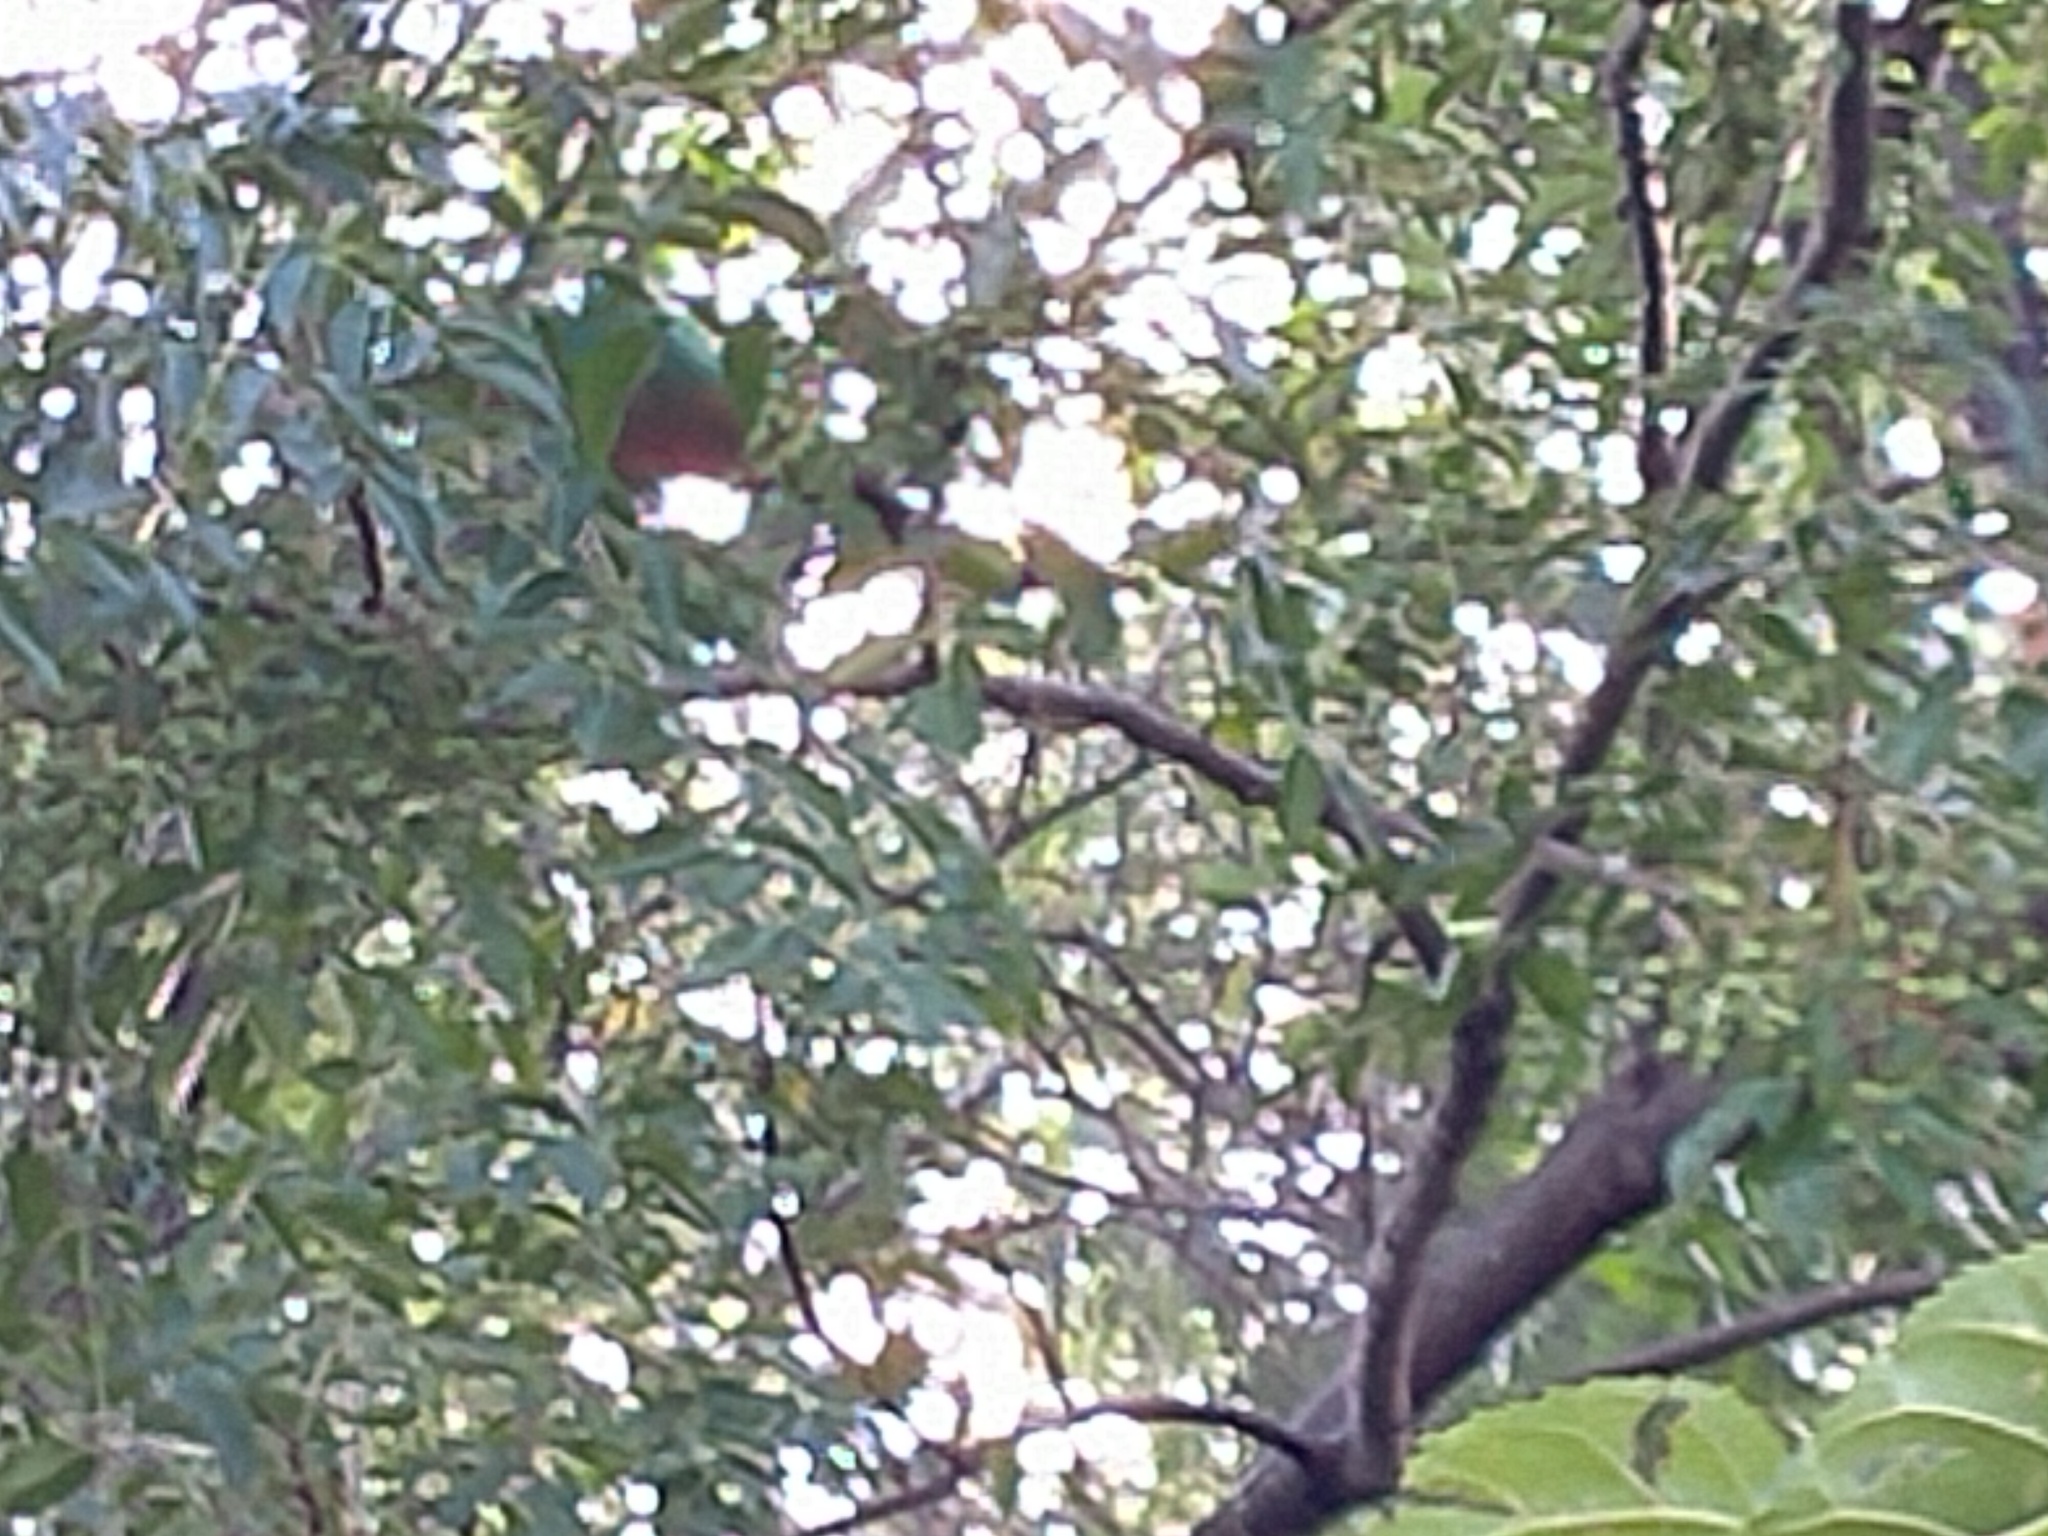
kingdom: Animalia
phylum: Chordata
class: Aves
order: Psittaciformes
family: Psittacidae
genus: Alisterus
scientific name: Alisterus scapularis
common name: Australian king parrot
